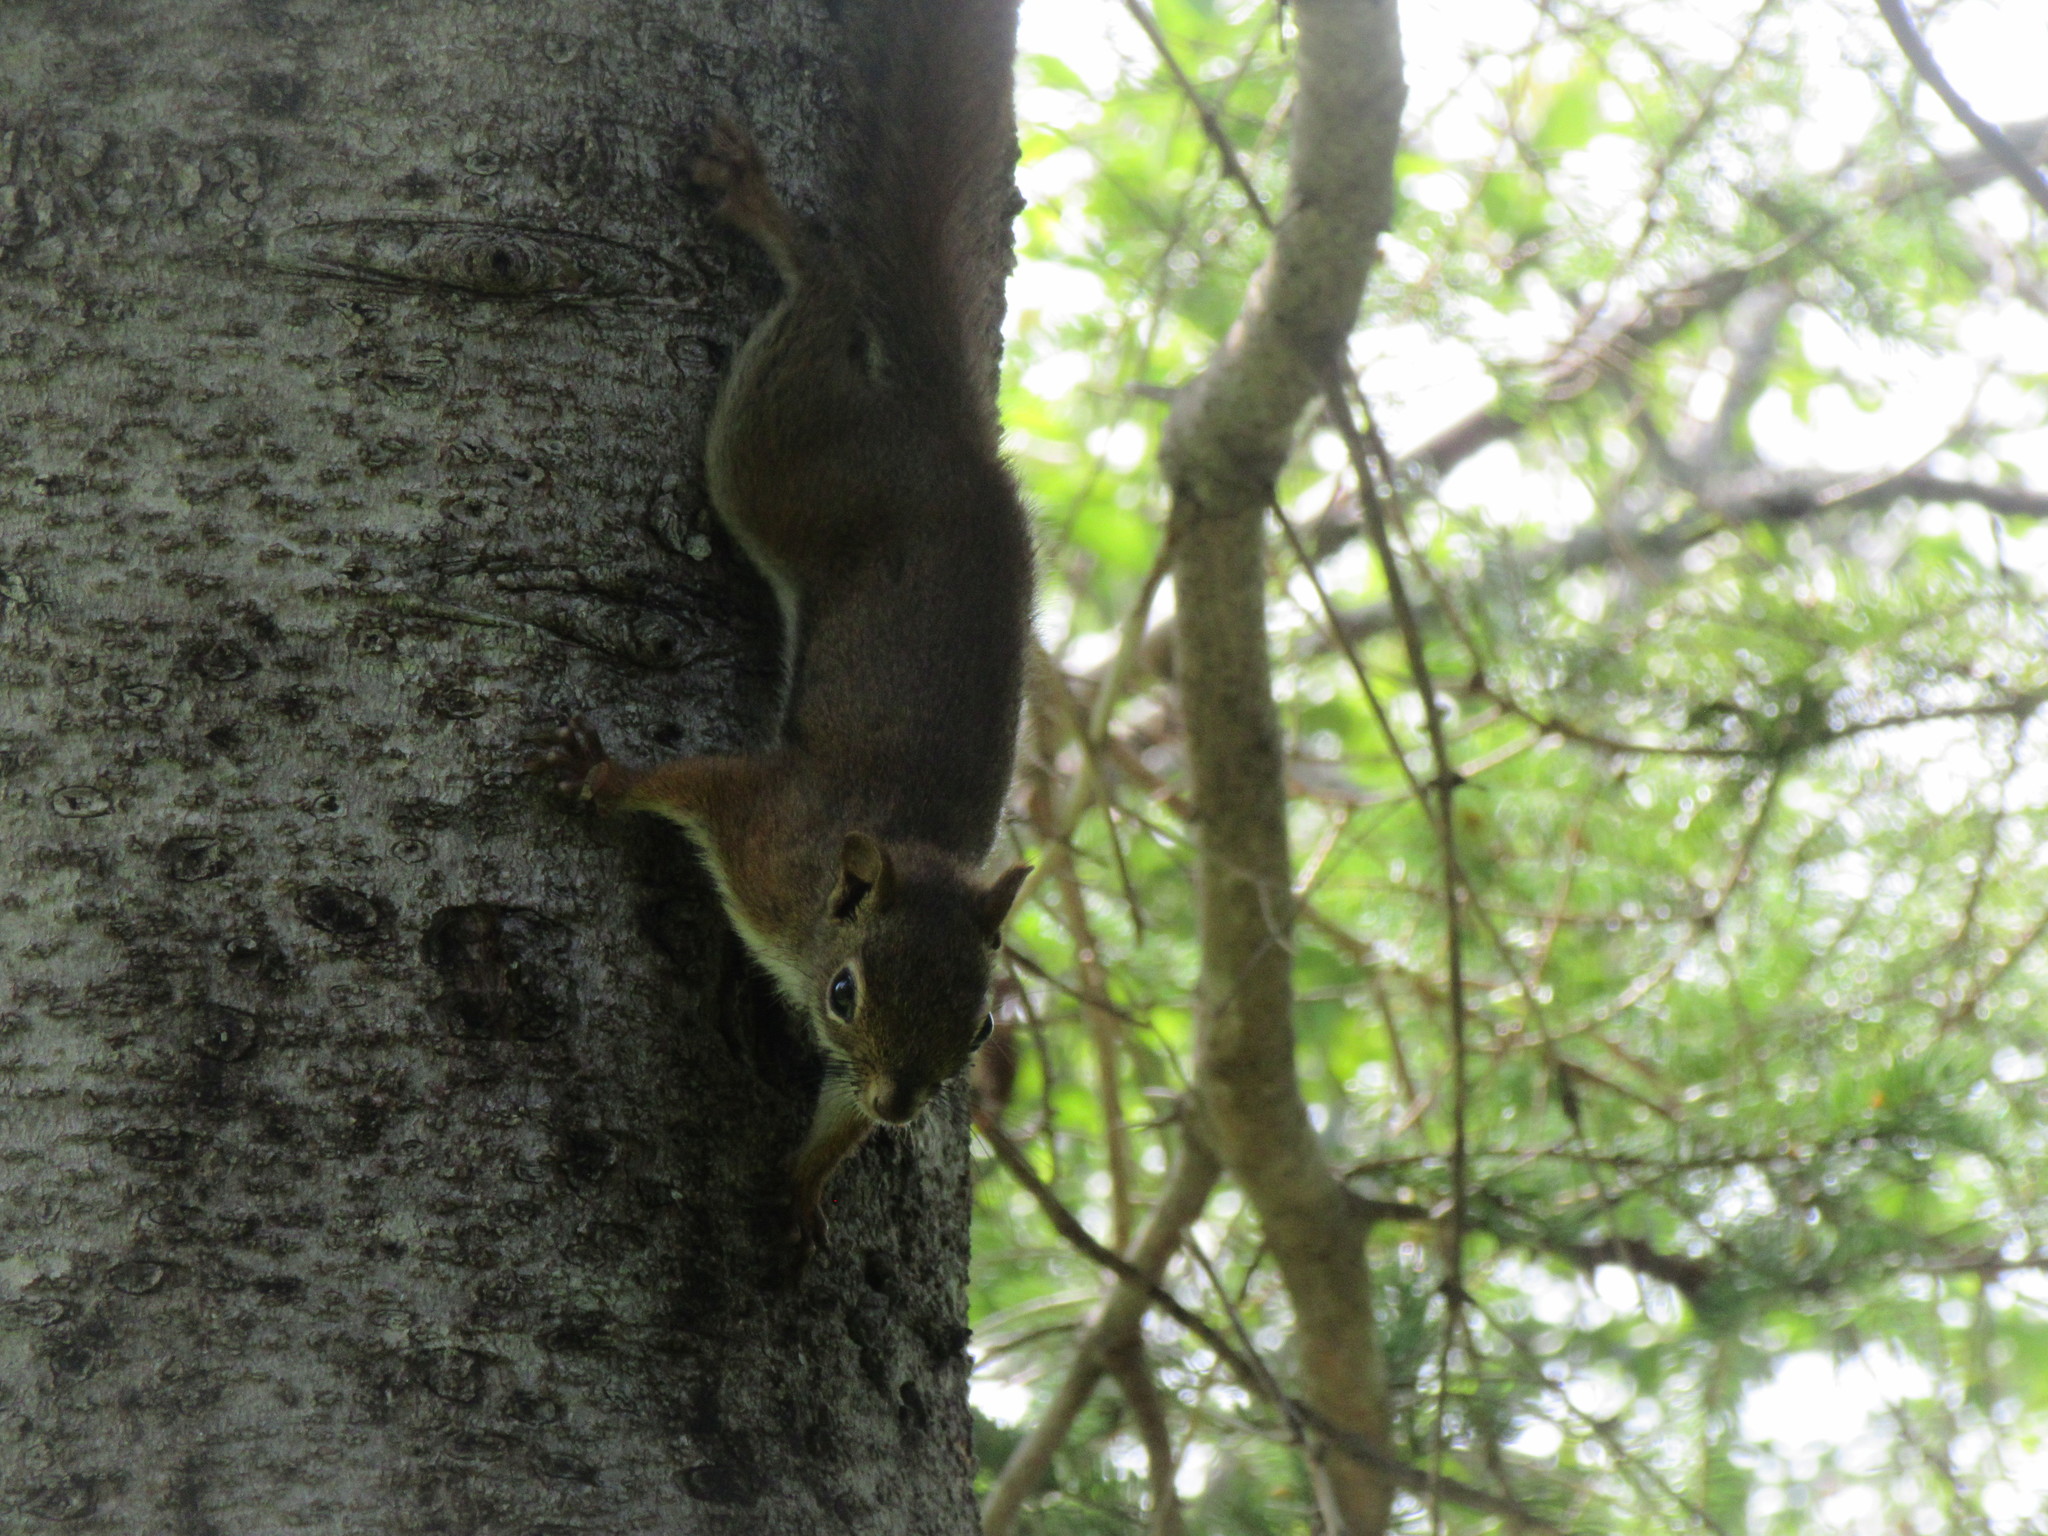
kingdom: Animalia
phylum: Chordata
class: Mammalia
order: Rodentia
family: Sciuridae
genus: Tamiasciurus
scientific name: Tamiasciurus hudsonicus
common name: Red squirrel
